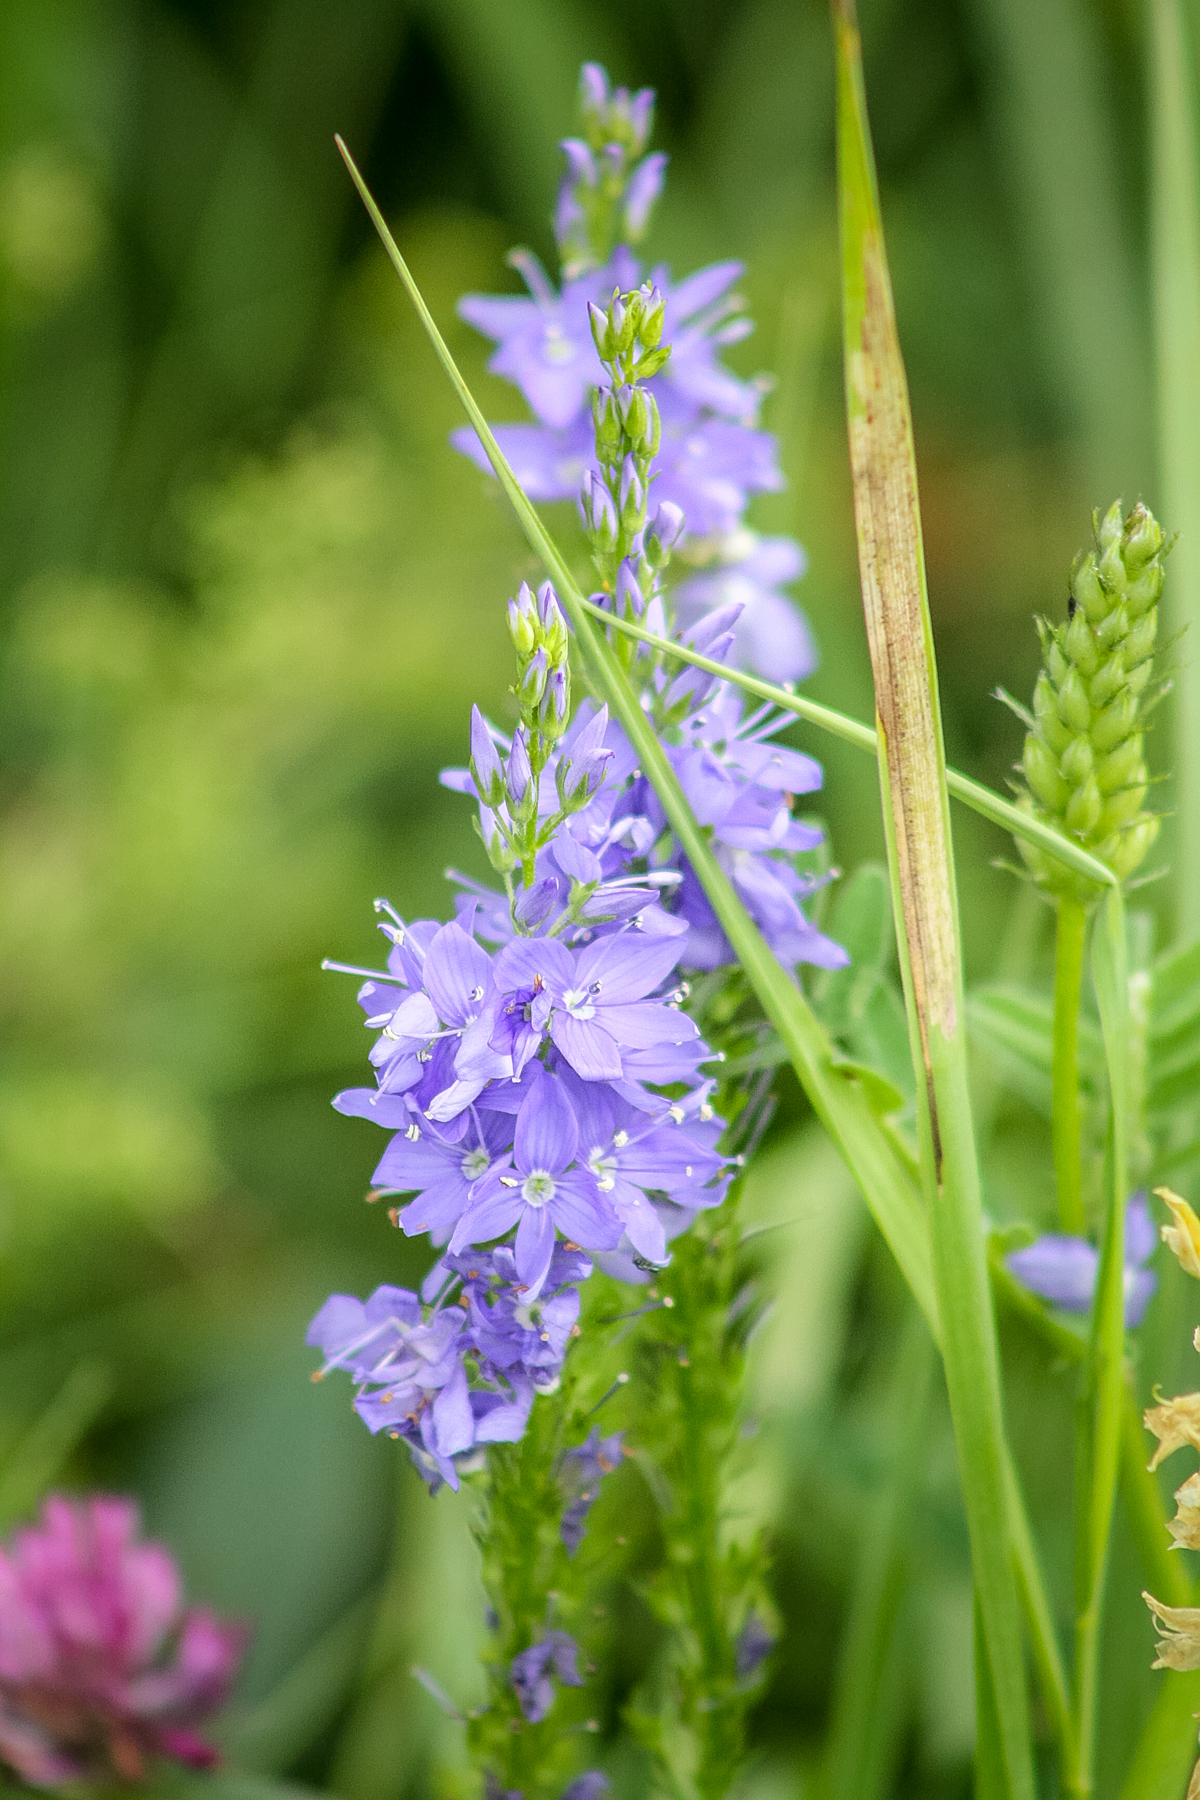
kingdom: Plantae
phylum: Tracheophyta
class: Magnoliopsida
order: Lamiales
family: Plantaginaceae
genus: Veronica
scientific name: Veronica teucrium
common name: Large speedwell
